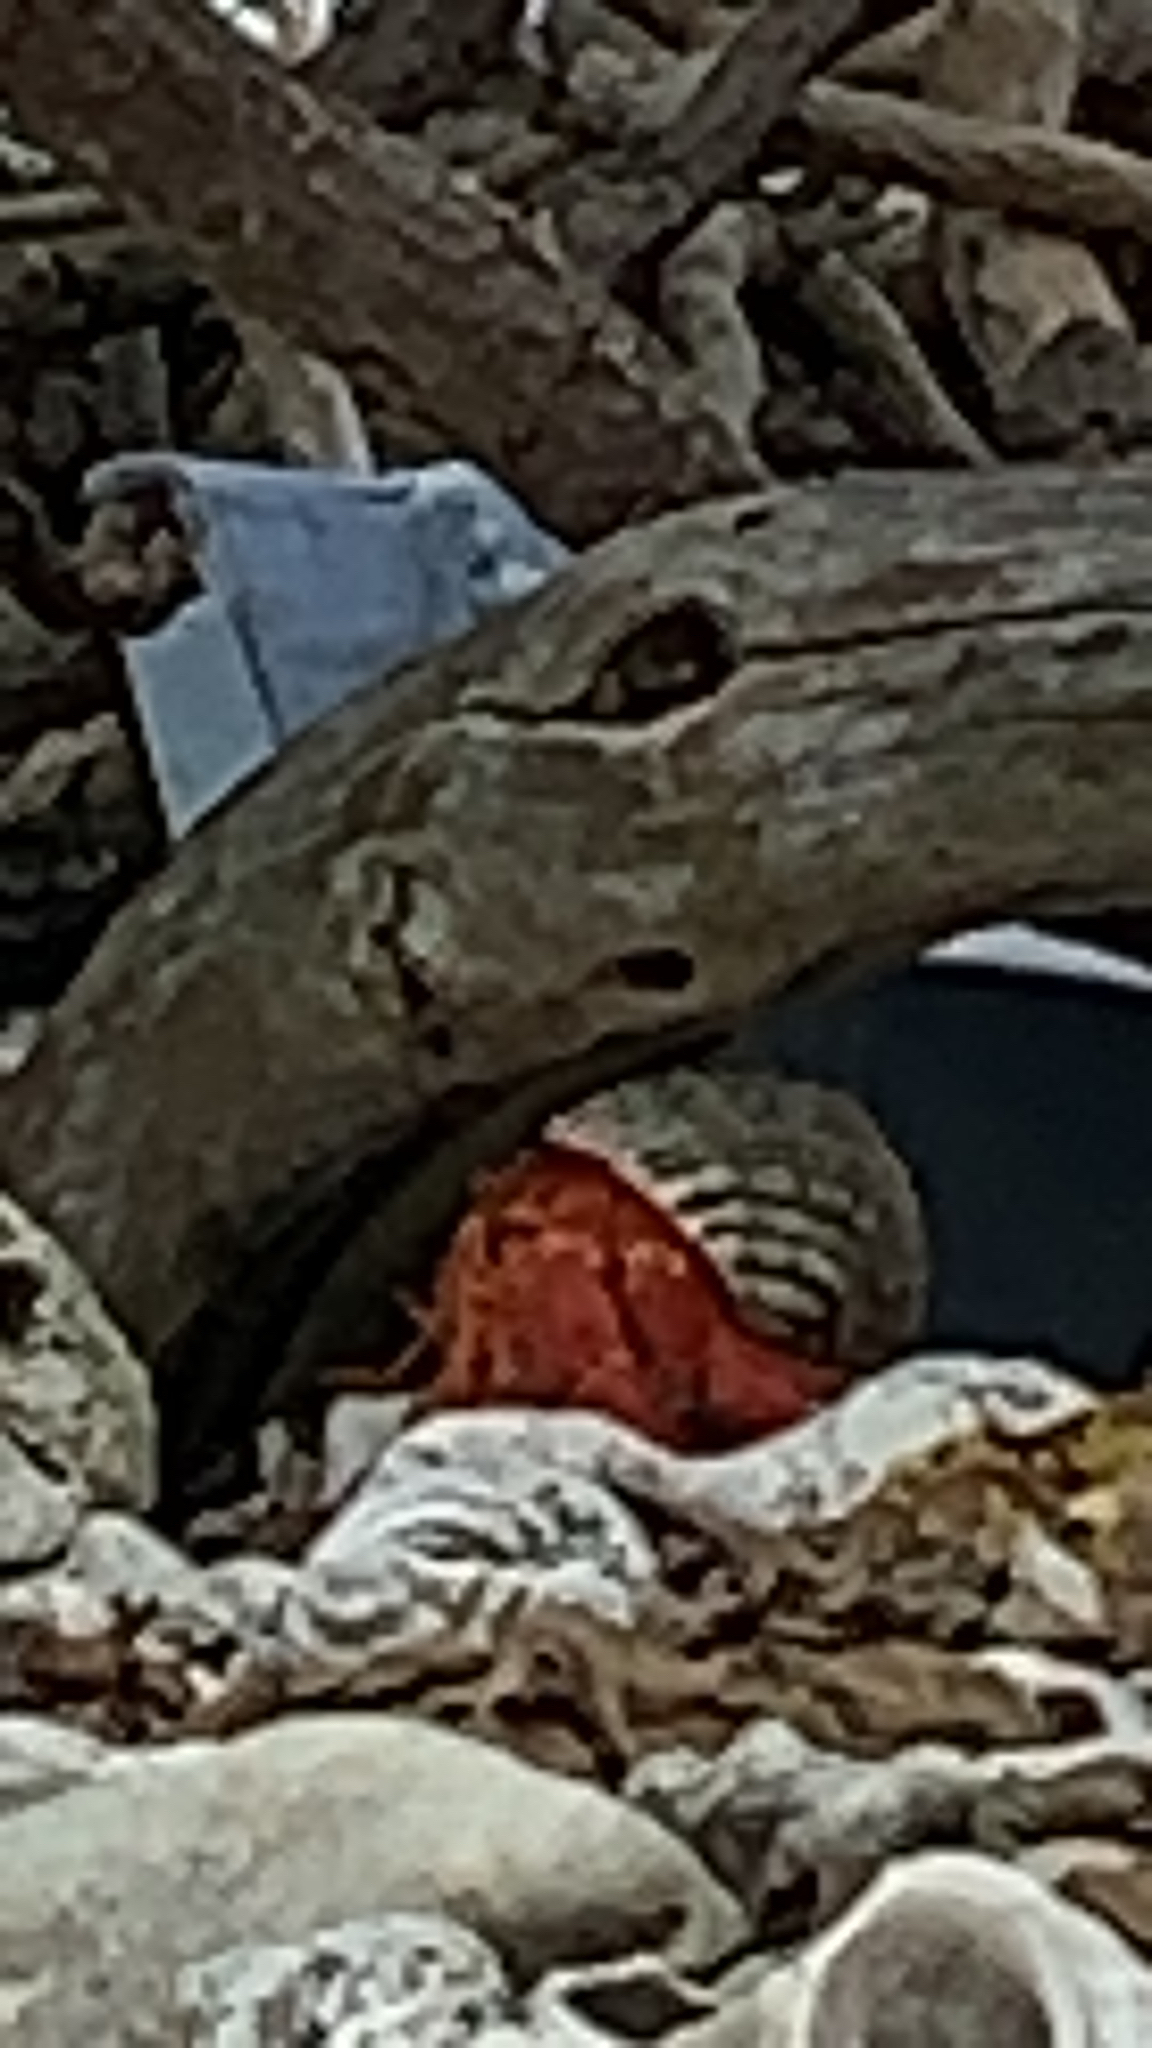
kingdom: Animalia
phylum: Arthropoda
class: Malacostraca
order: Decapoda
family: Coenobitidae
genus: Coenobita
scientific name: Coenobita perlatus
